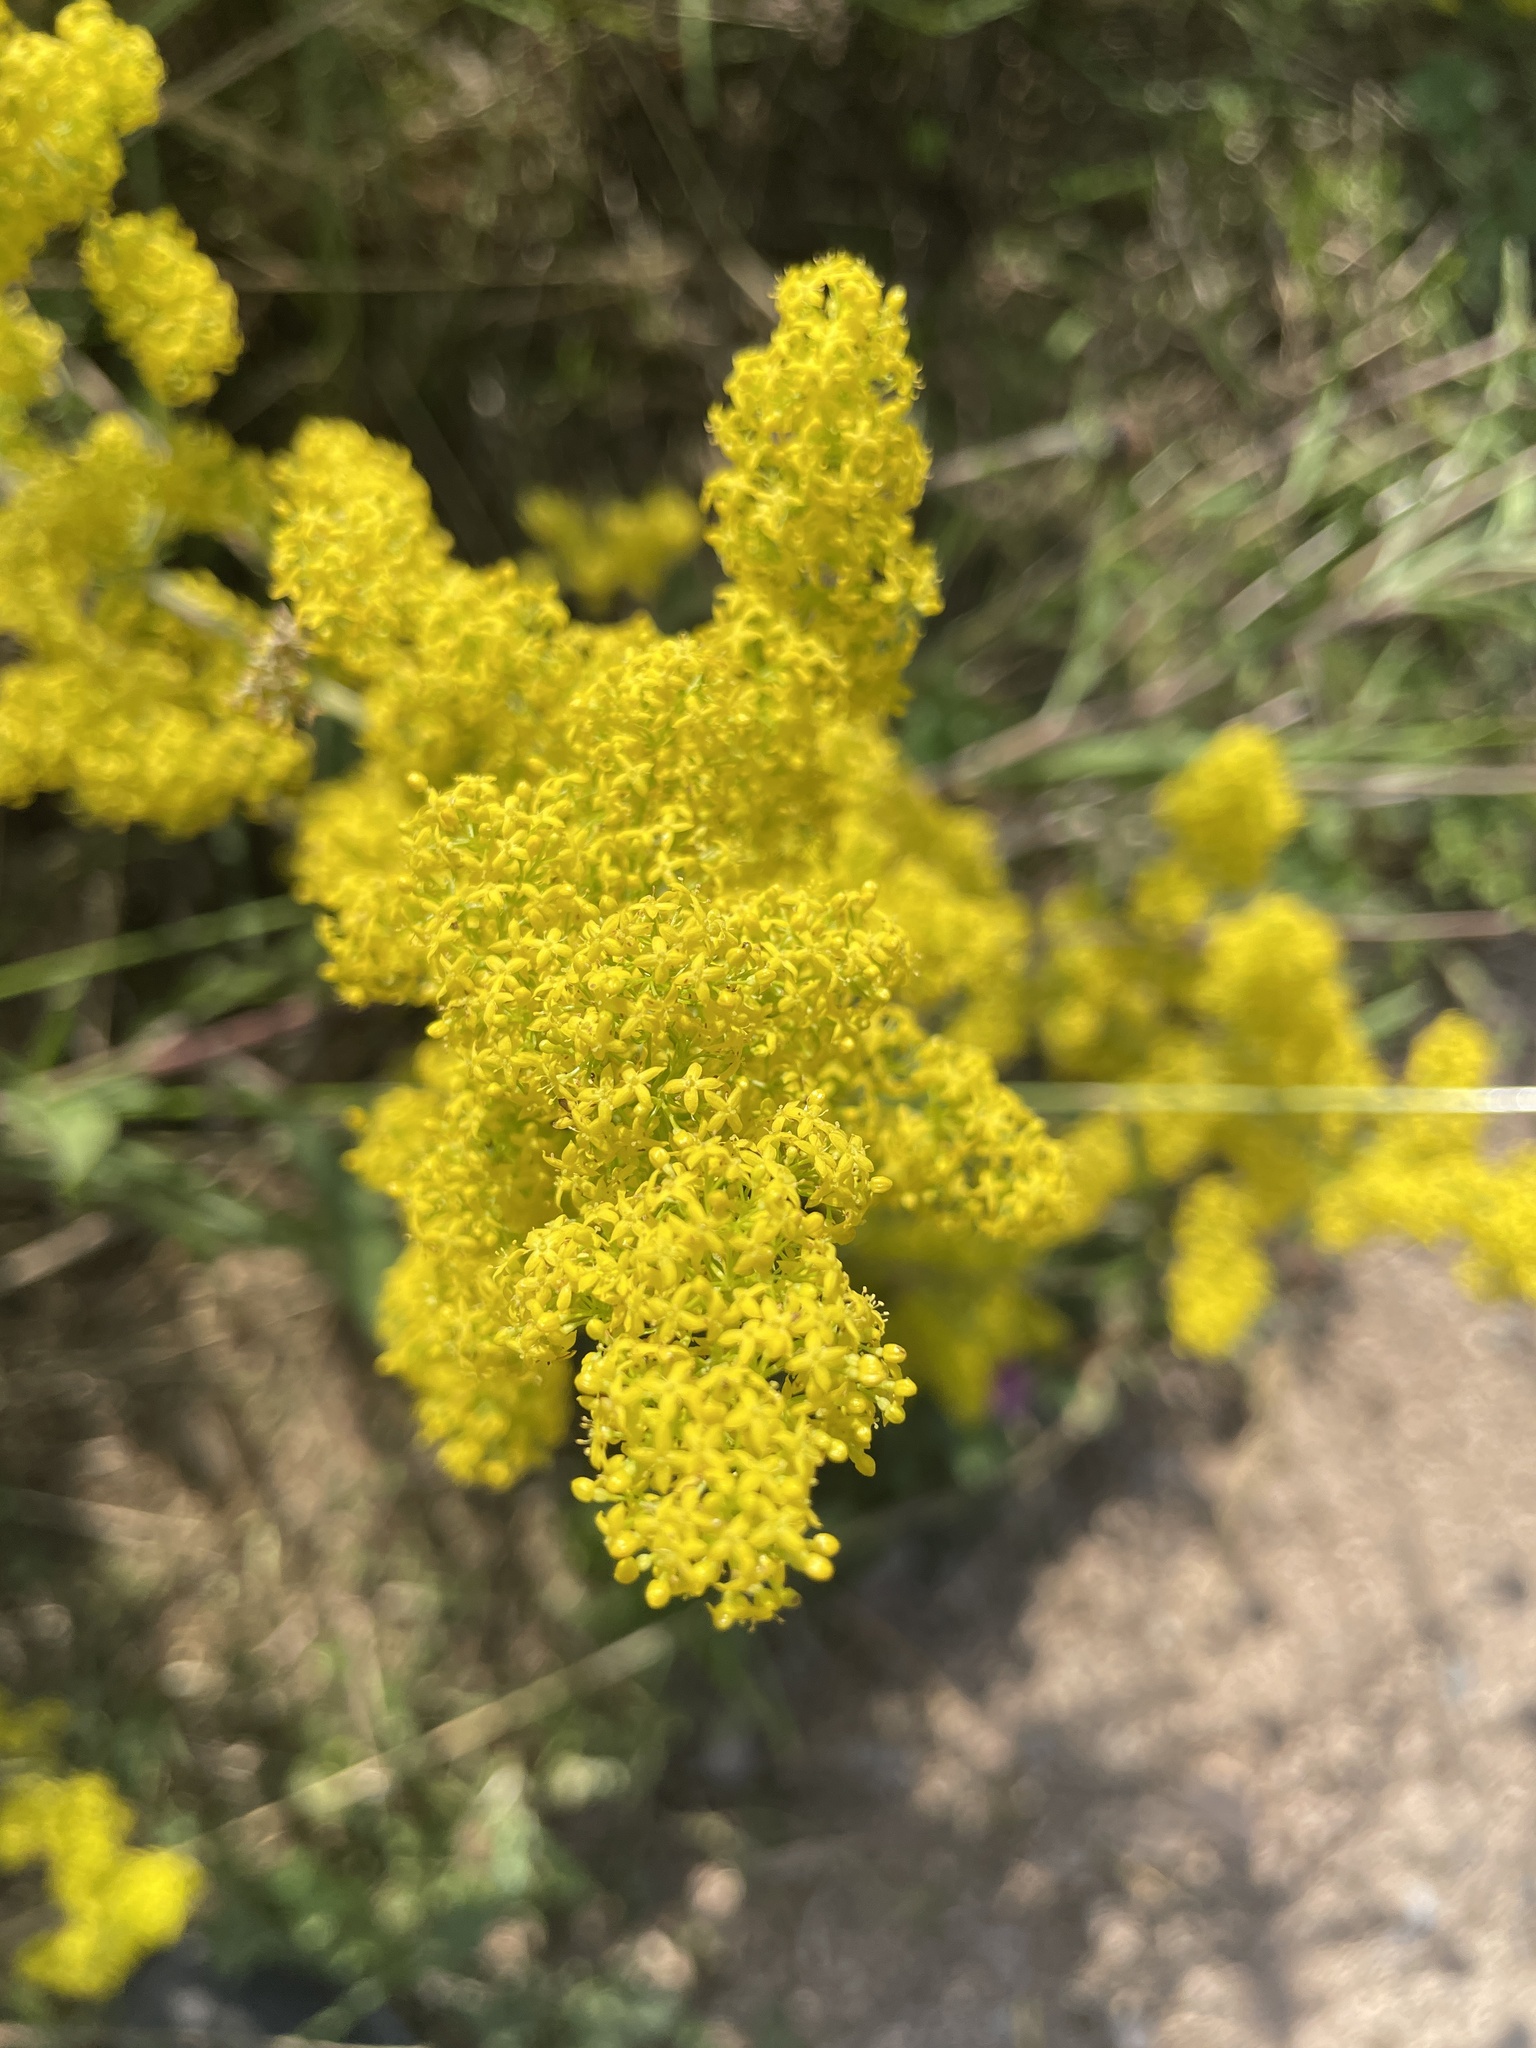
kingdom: Plantae
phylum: Tracheophyta
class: Magnoliopsida
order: Gentianales
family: Rubiaceae
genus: Galium
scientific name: Galium verum
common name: Lady's bedstraw
